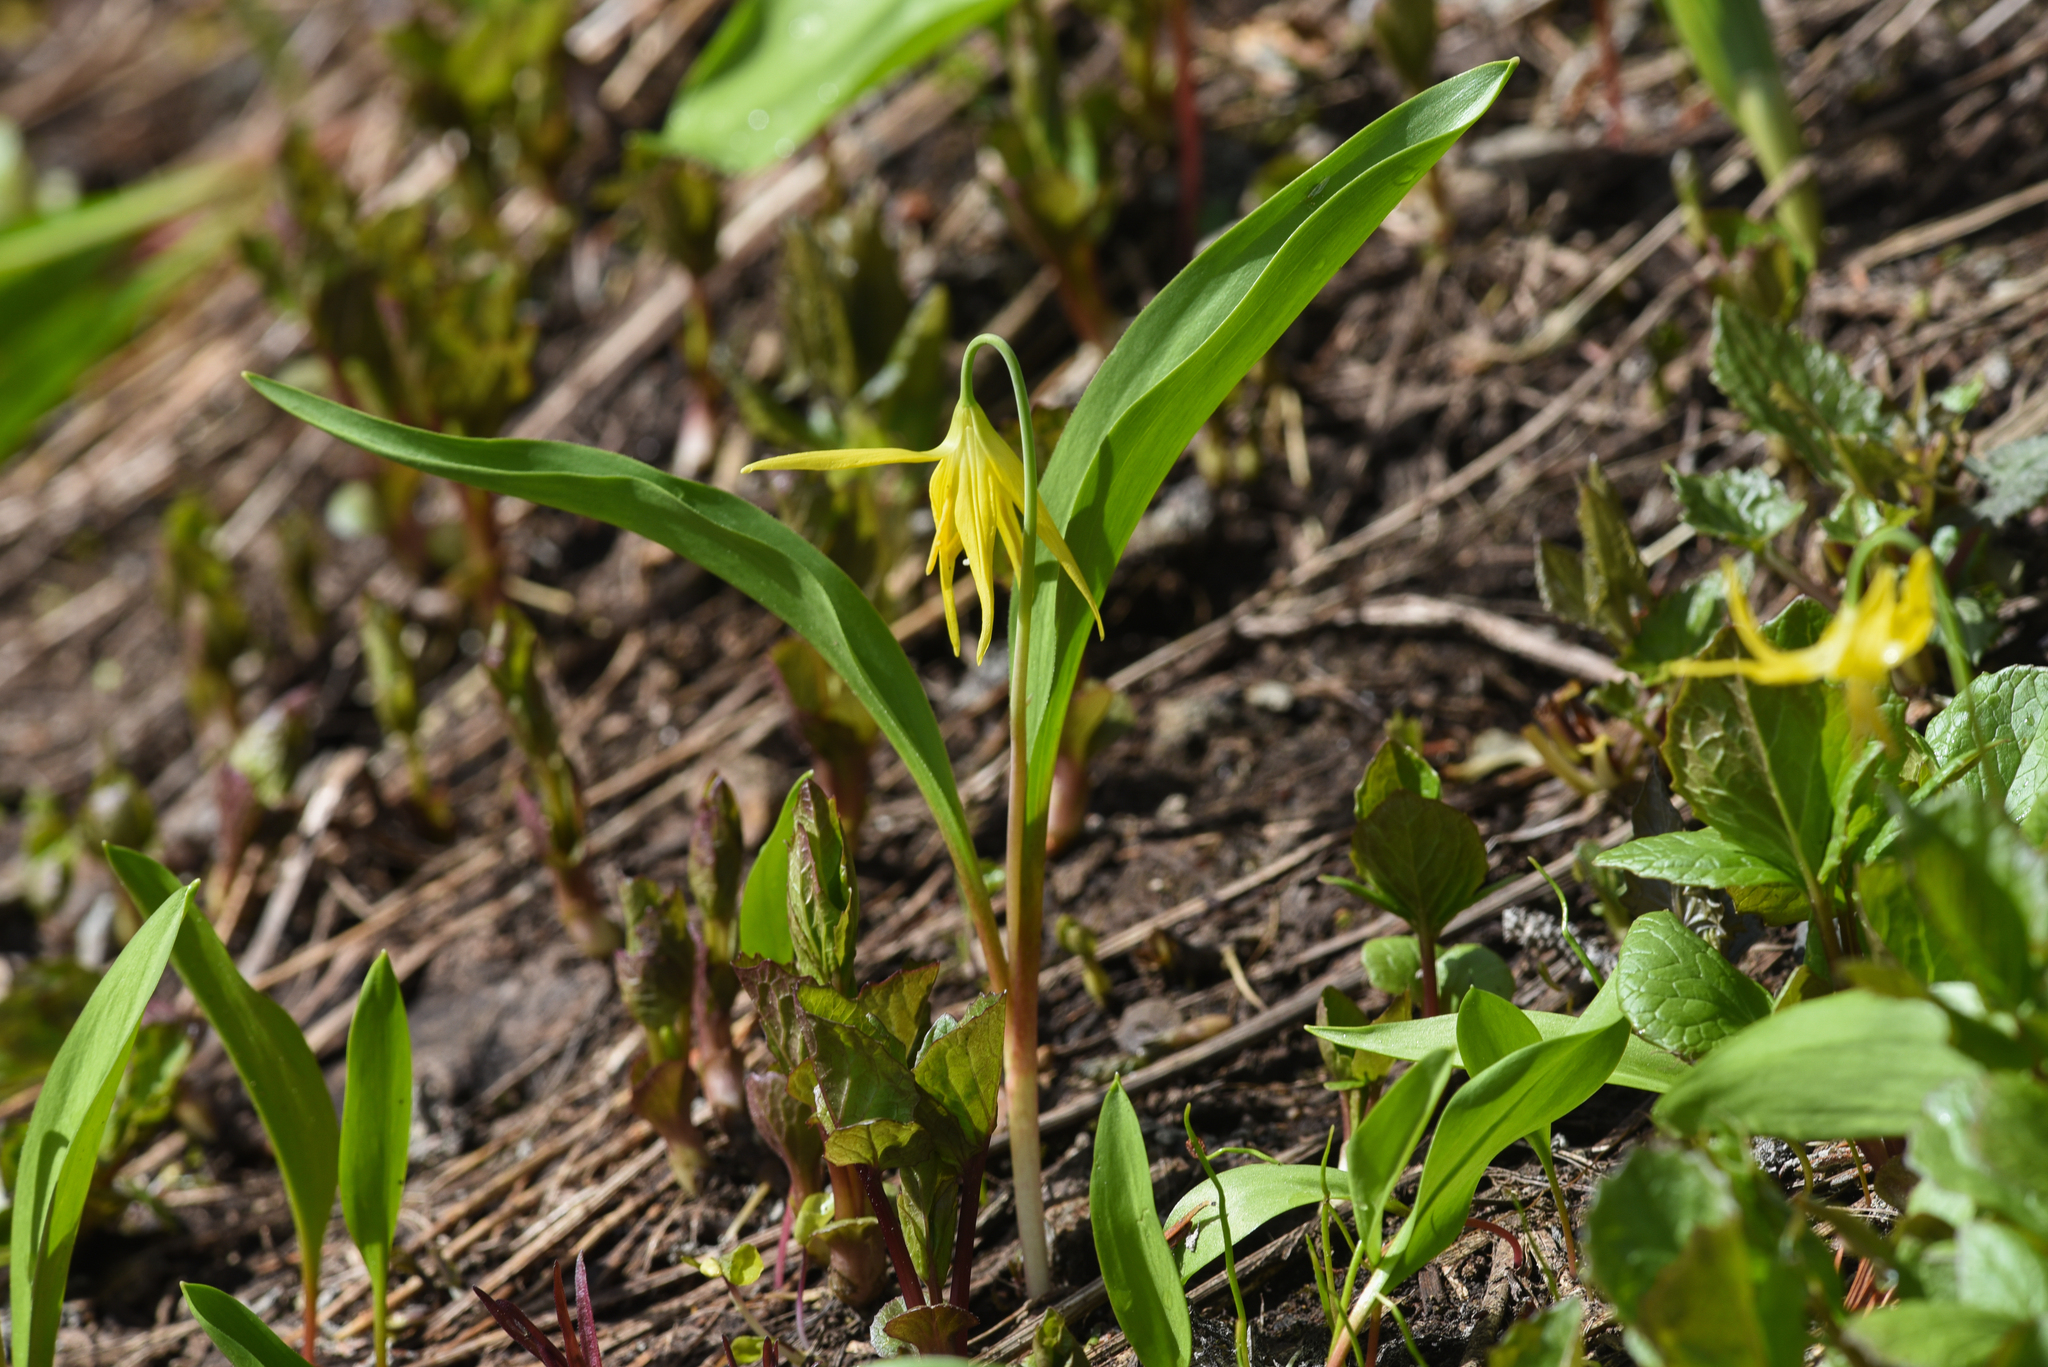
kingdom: Plantae
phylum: Tracheophyta
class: Liliopsida
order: Liliales
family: Liliaceae
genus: Erythronium
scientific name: Erythronium grandiflorum
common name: Avalanche-lily
